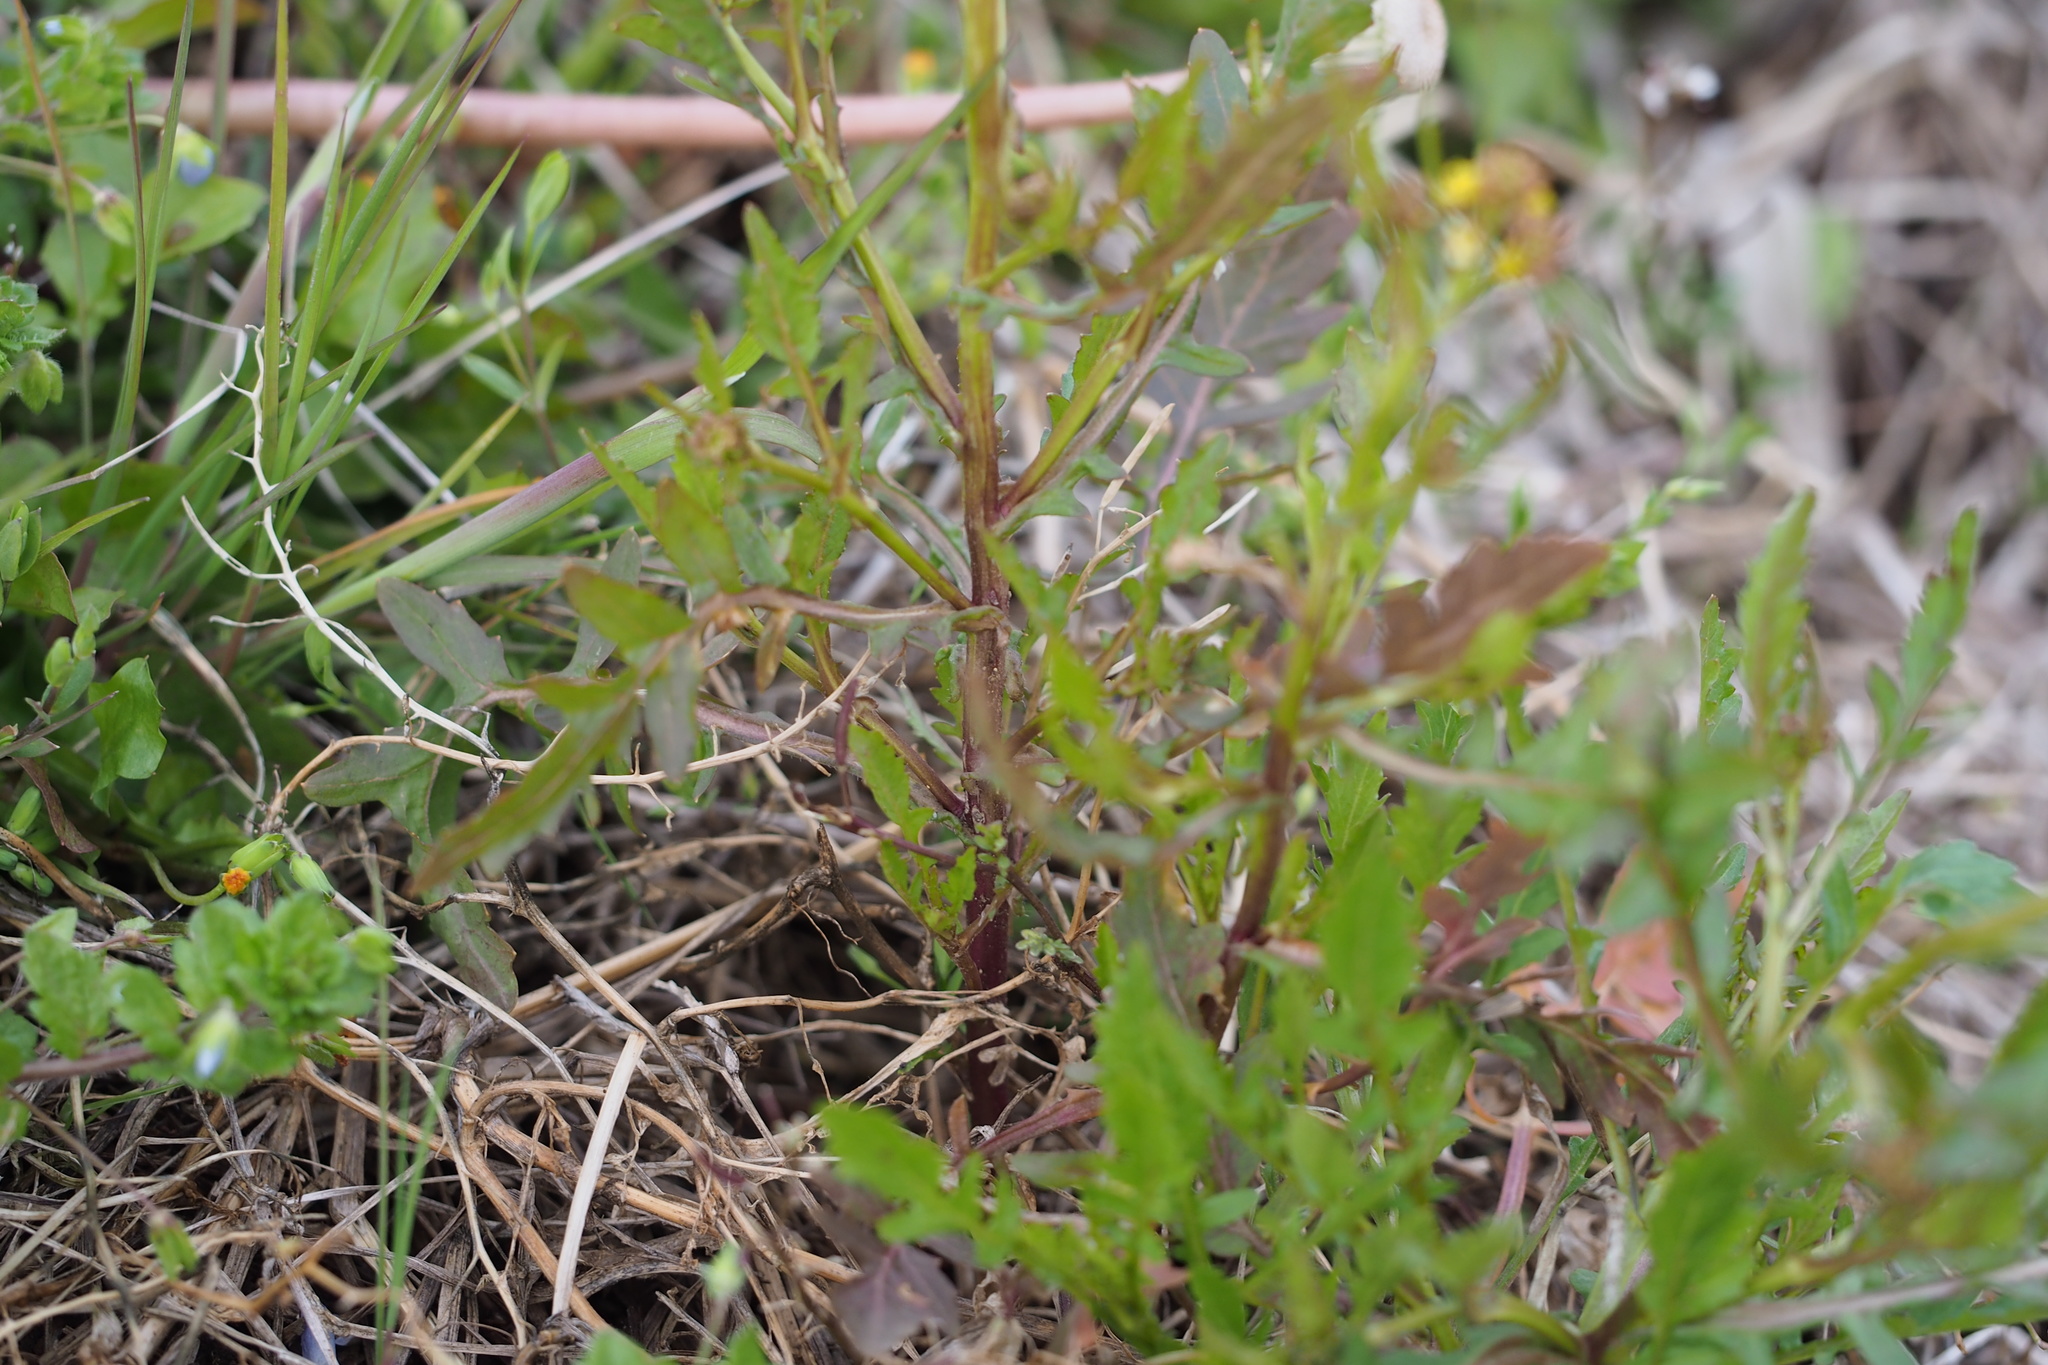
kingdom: Plantae
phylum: Tracheophyta
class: Magnoliopsida
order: Brassicales
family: Brassicaceae
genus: Rorippa
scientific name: Rorippa palustris
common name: Marsh yellow-cress
